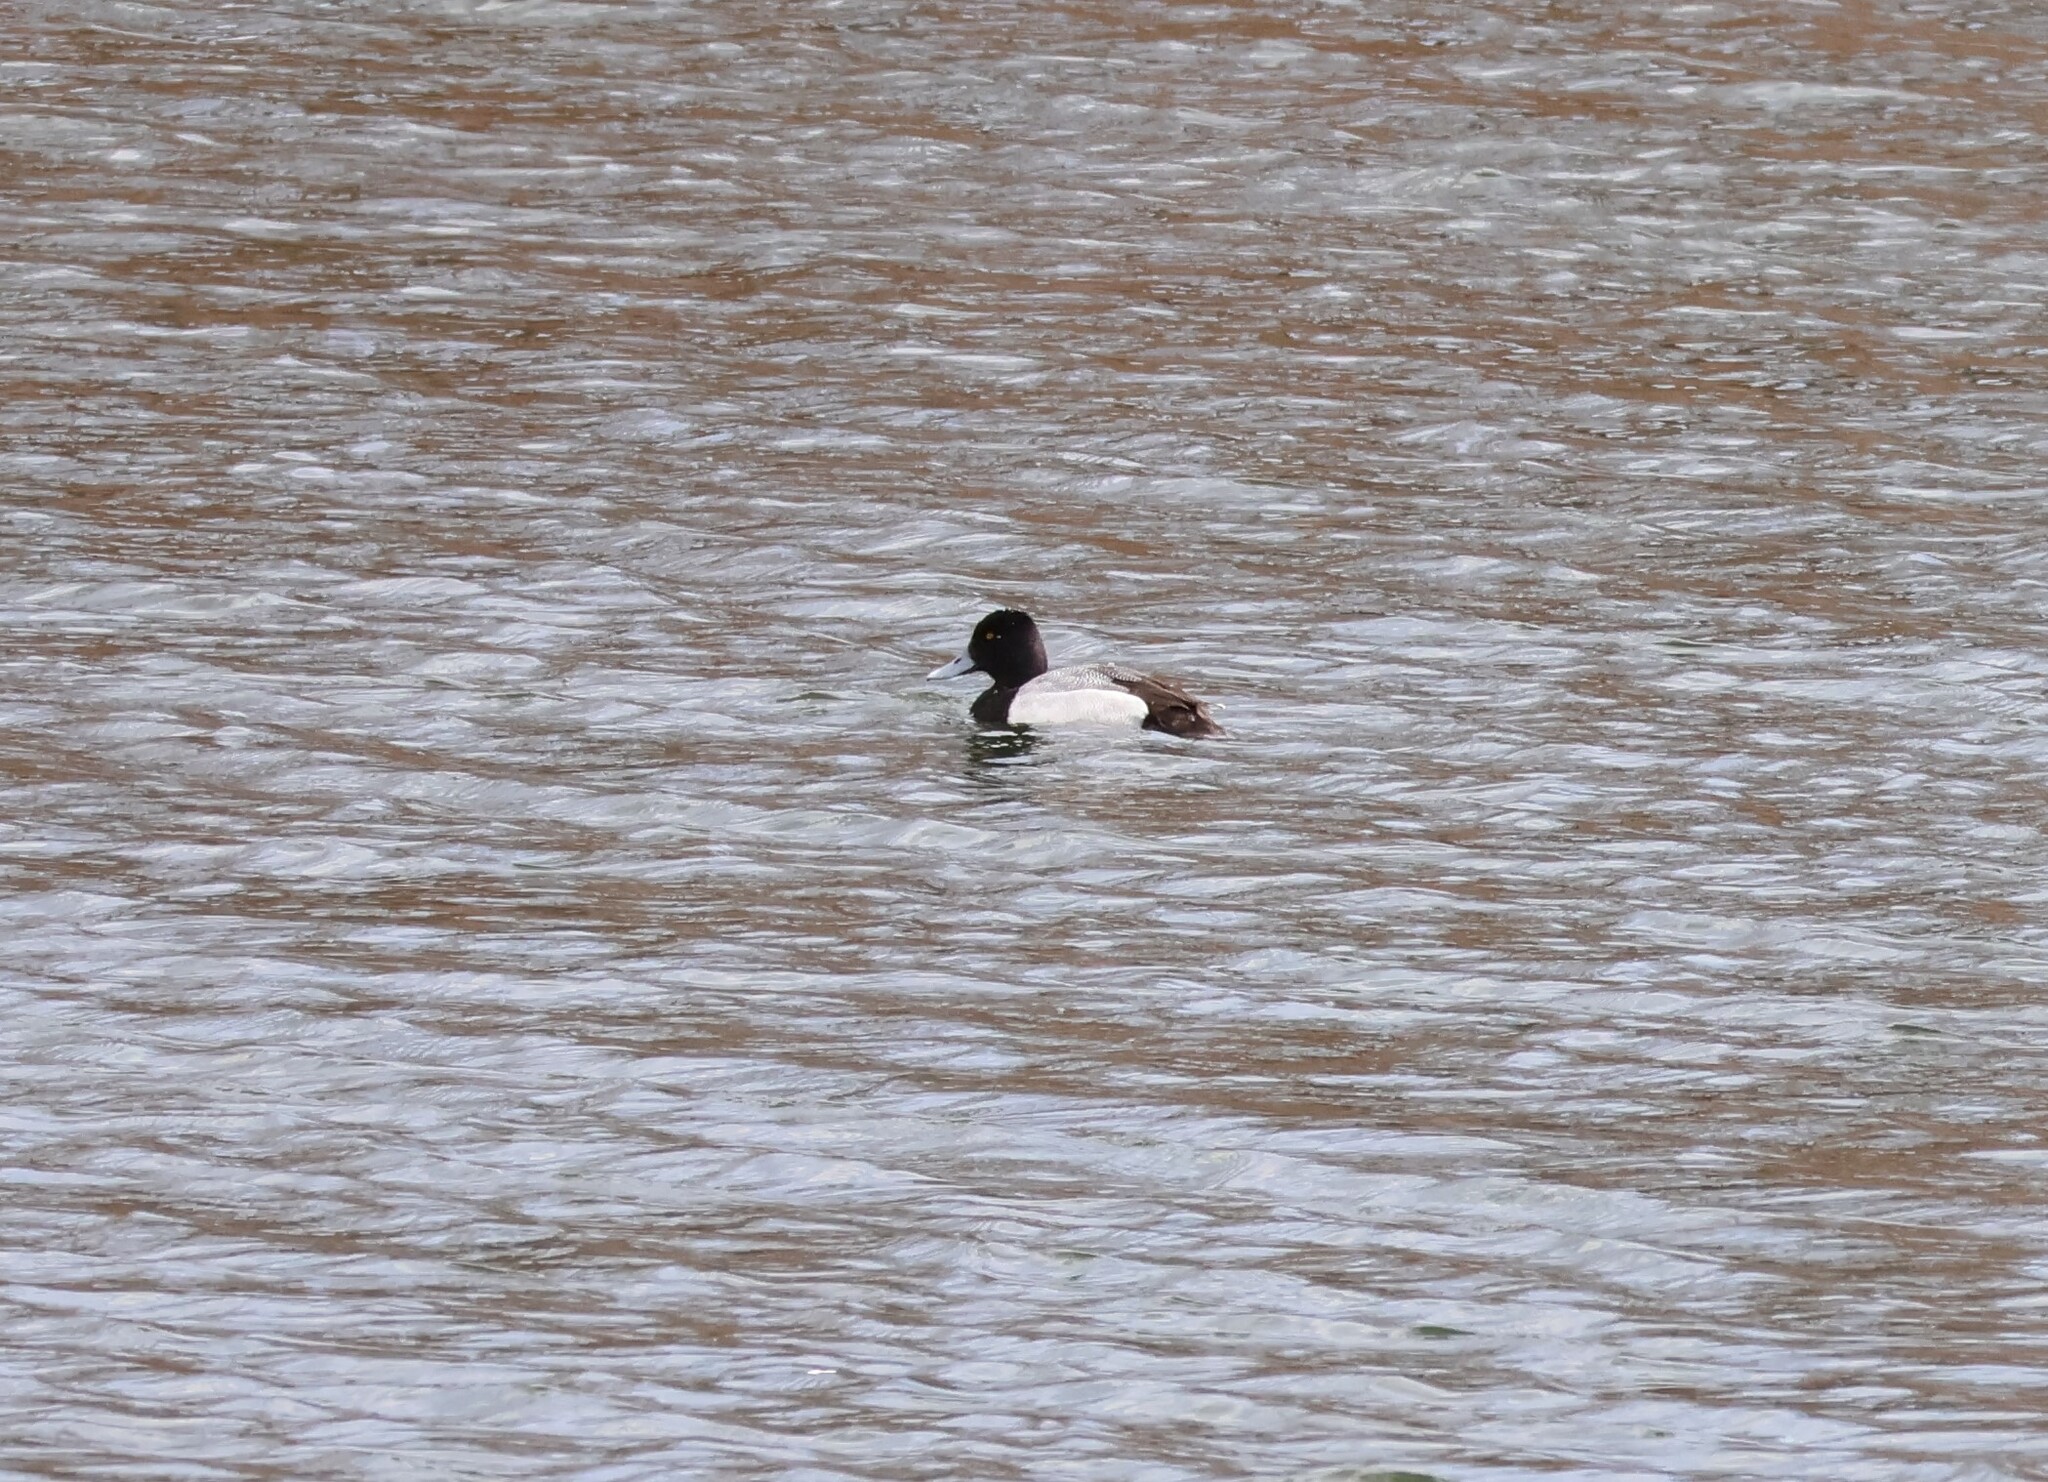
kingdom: Animalia
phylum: Chordata
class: Aves
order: Anseriformes
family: Anatidae
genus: Aythya
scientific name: Aythya affinis
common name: Lesser scaup
